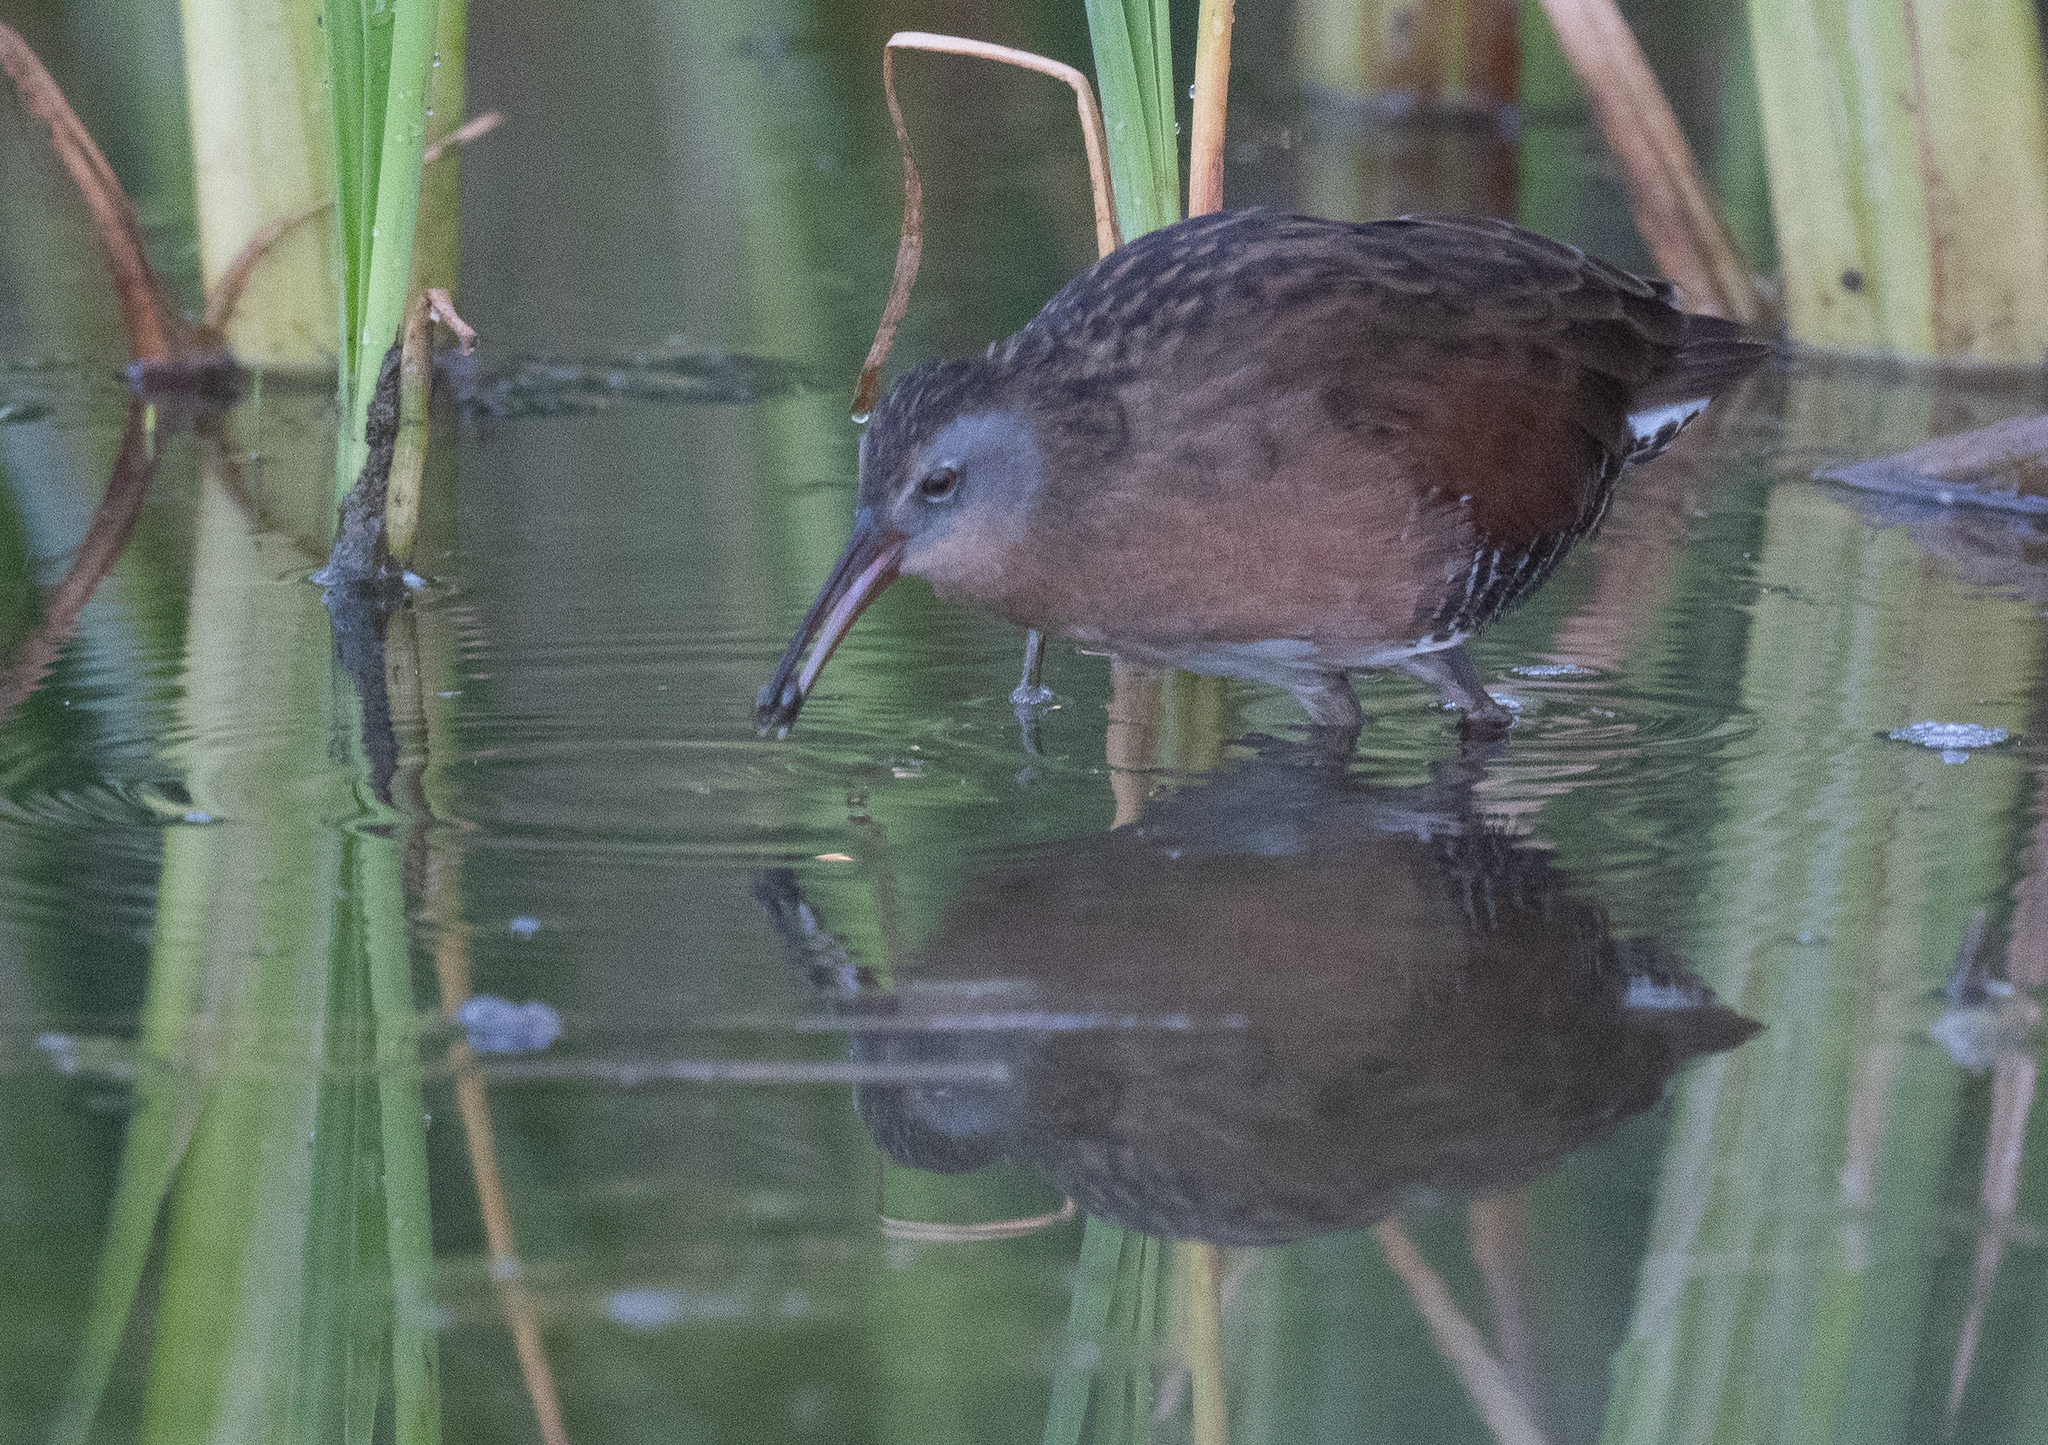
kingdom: Animalia
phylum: Chordata
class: Aves
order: Gruiformes
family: Rallidae
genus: Rallus
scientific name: Rallus limicola
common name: Virginia rail
